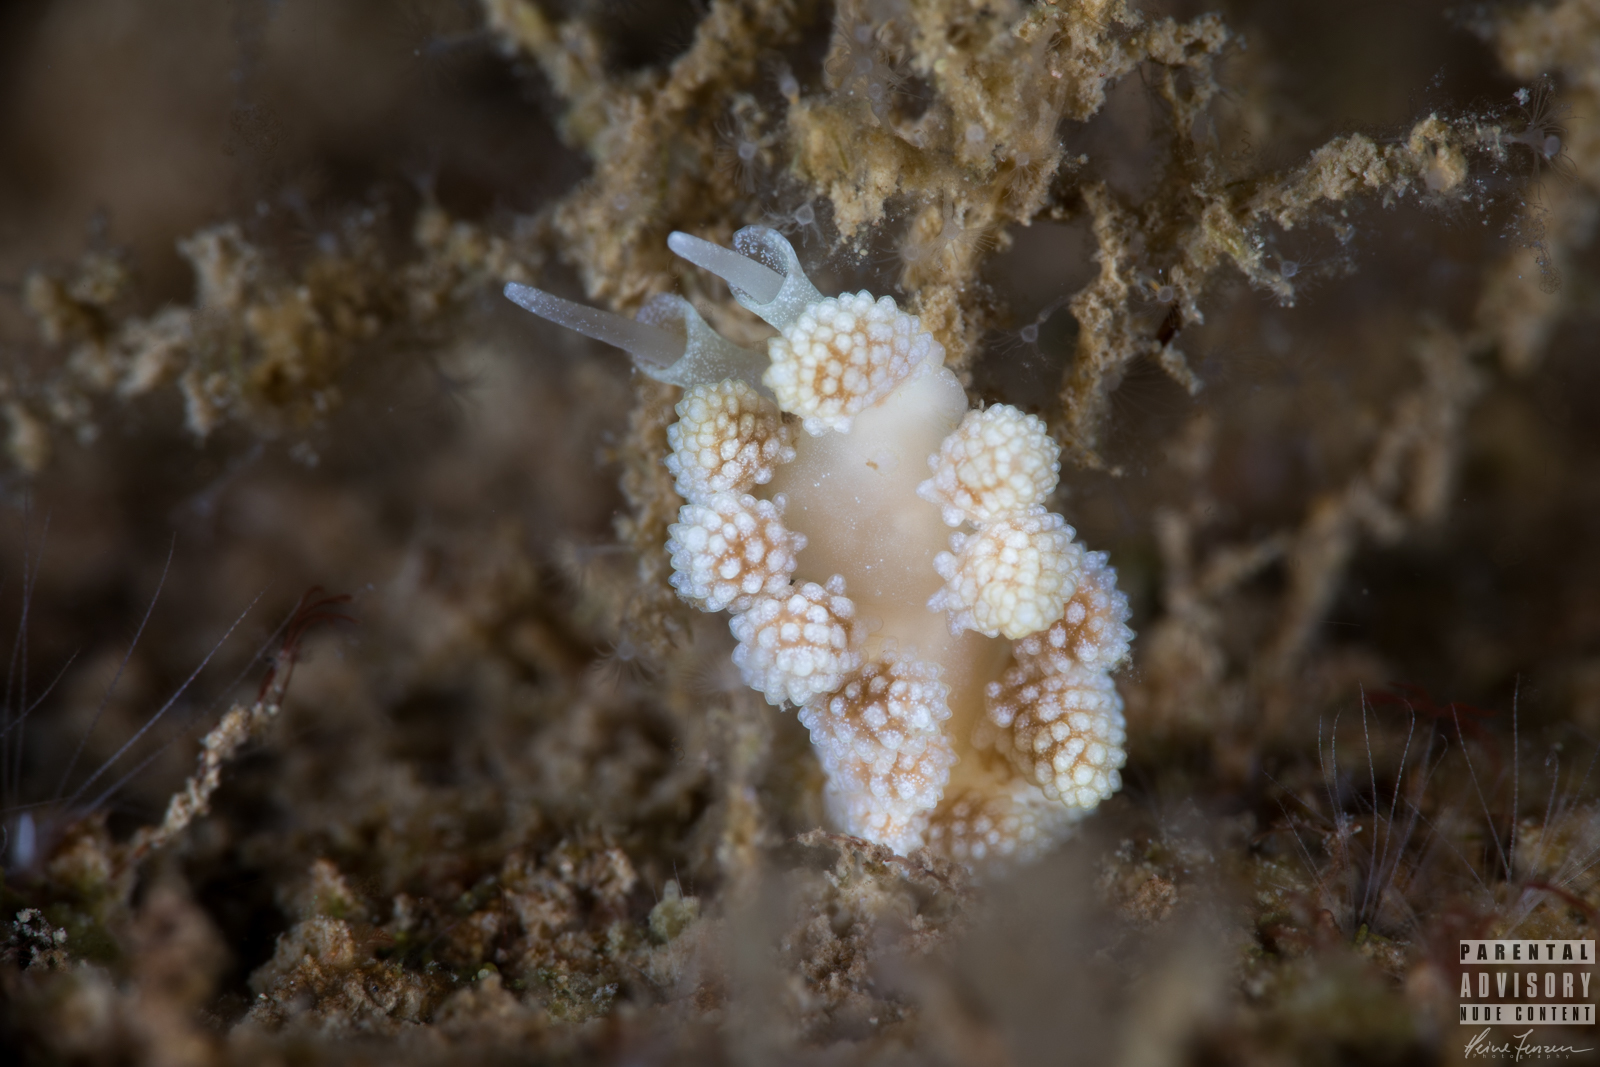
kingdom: Animalia
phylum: Mollusca
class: Gastropoda
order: Nudibranchia
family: Dotidae
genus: Doto
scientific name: Doto fragilis
